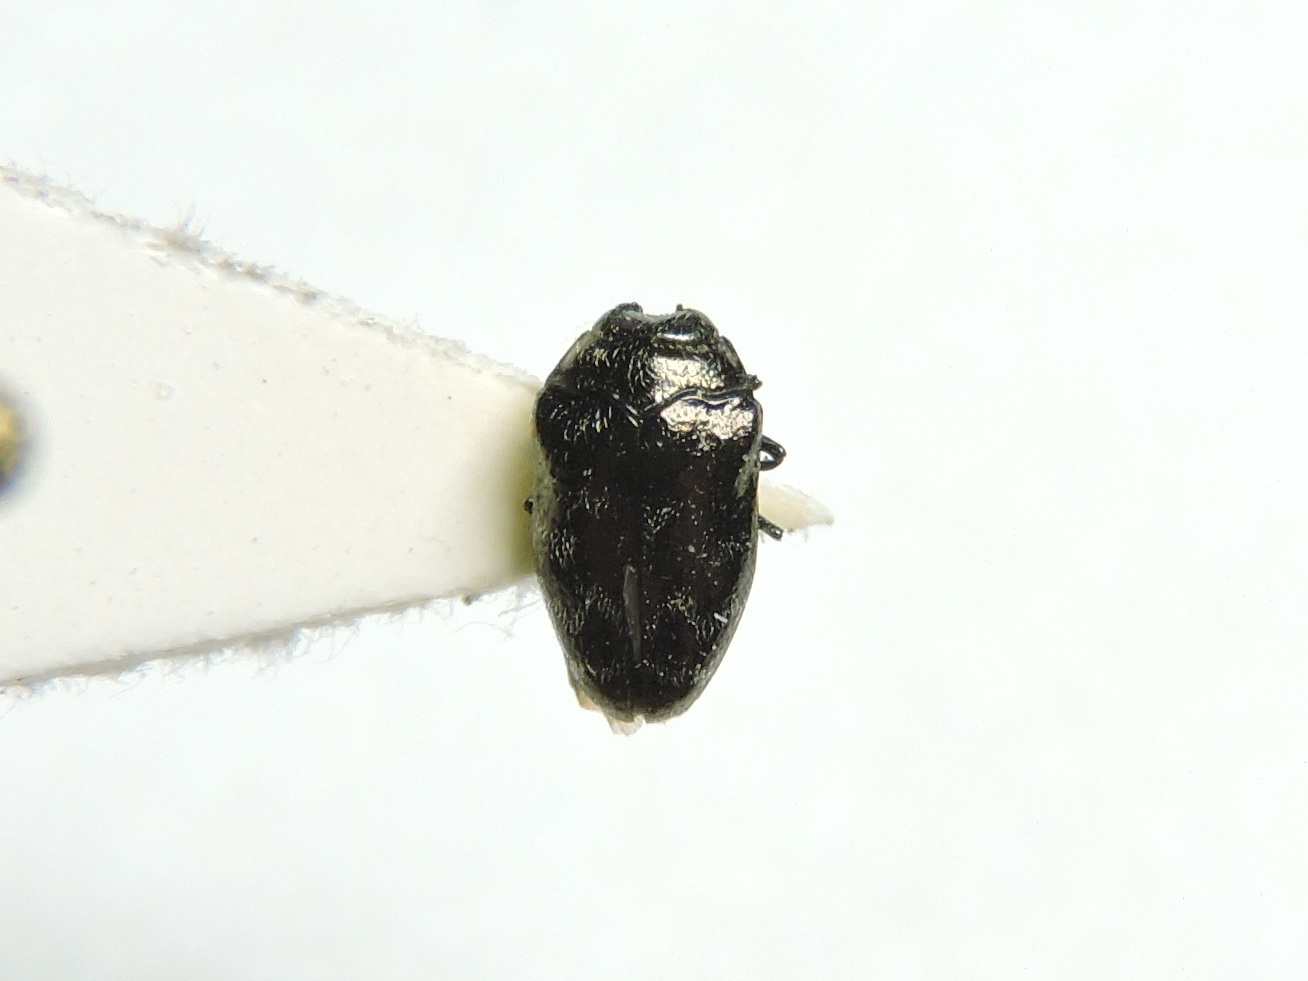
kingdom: Animalia
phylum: Arthropoda
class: Insecta
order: Coleoptera
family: Buprestidae
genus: Trachys
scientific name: Trachys minutus
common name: Metallic wood-boring beetle
